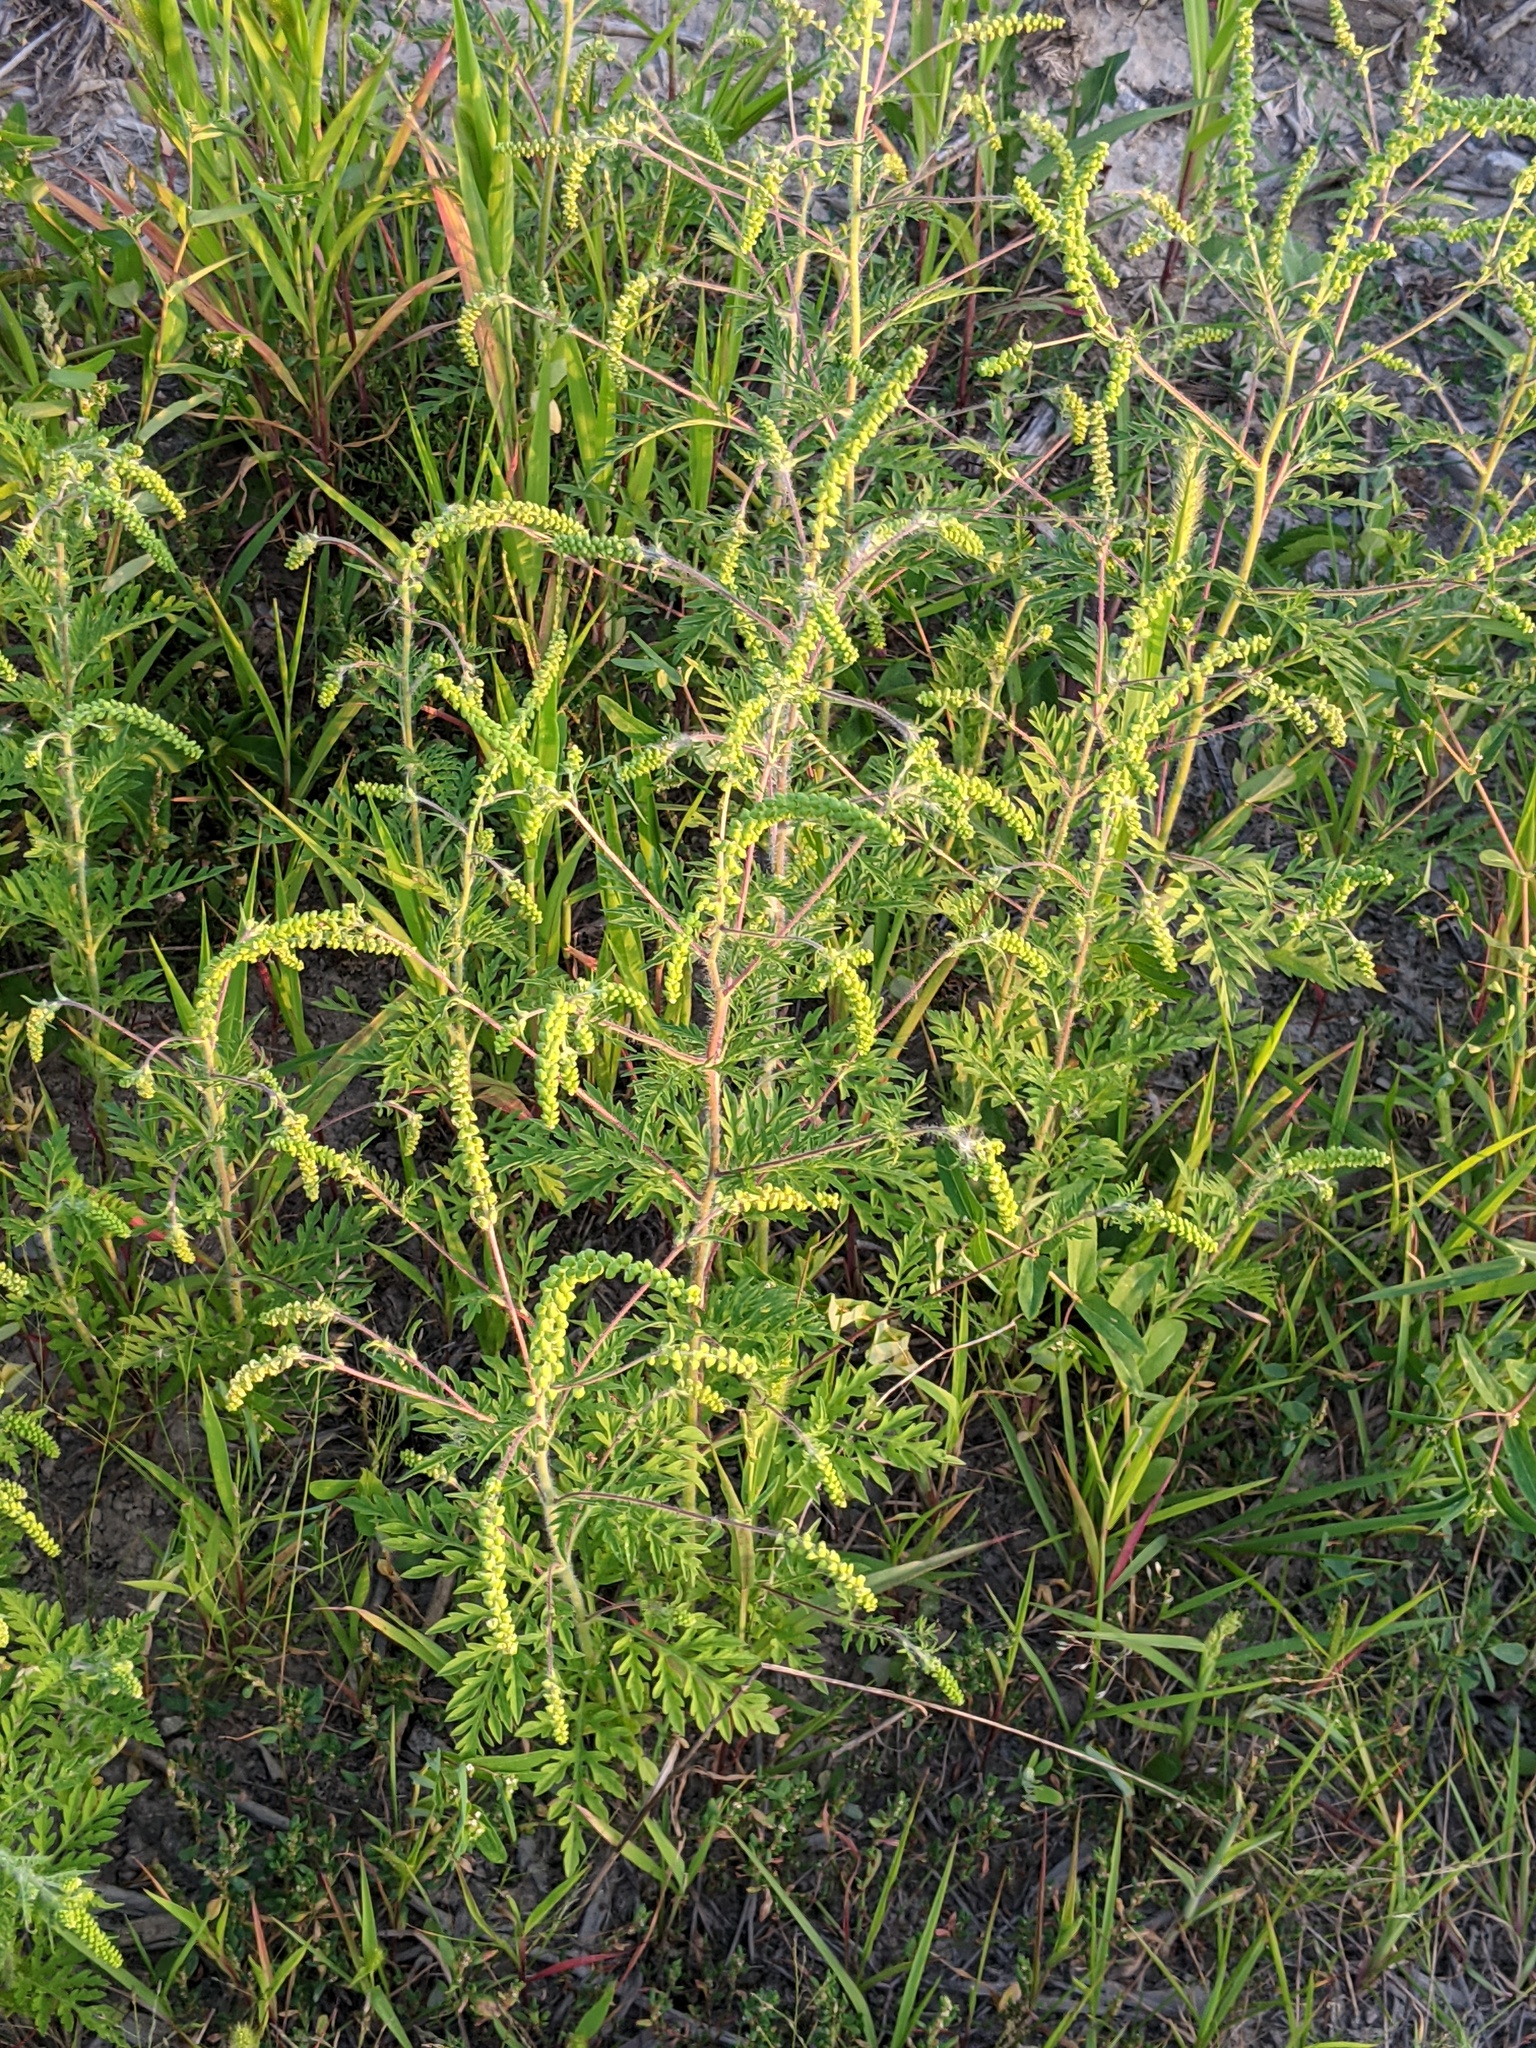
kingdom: Plantae
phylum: Tracheophyta
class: Magnoliopsida
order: Asterales
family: Asteraceae
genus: Ambrosia
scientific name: Ambrosia artemisiifolia
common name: Annual ragweed
